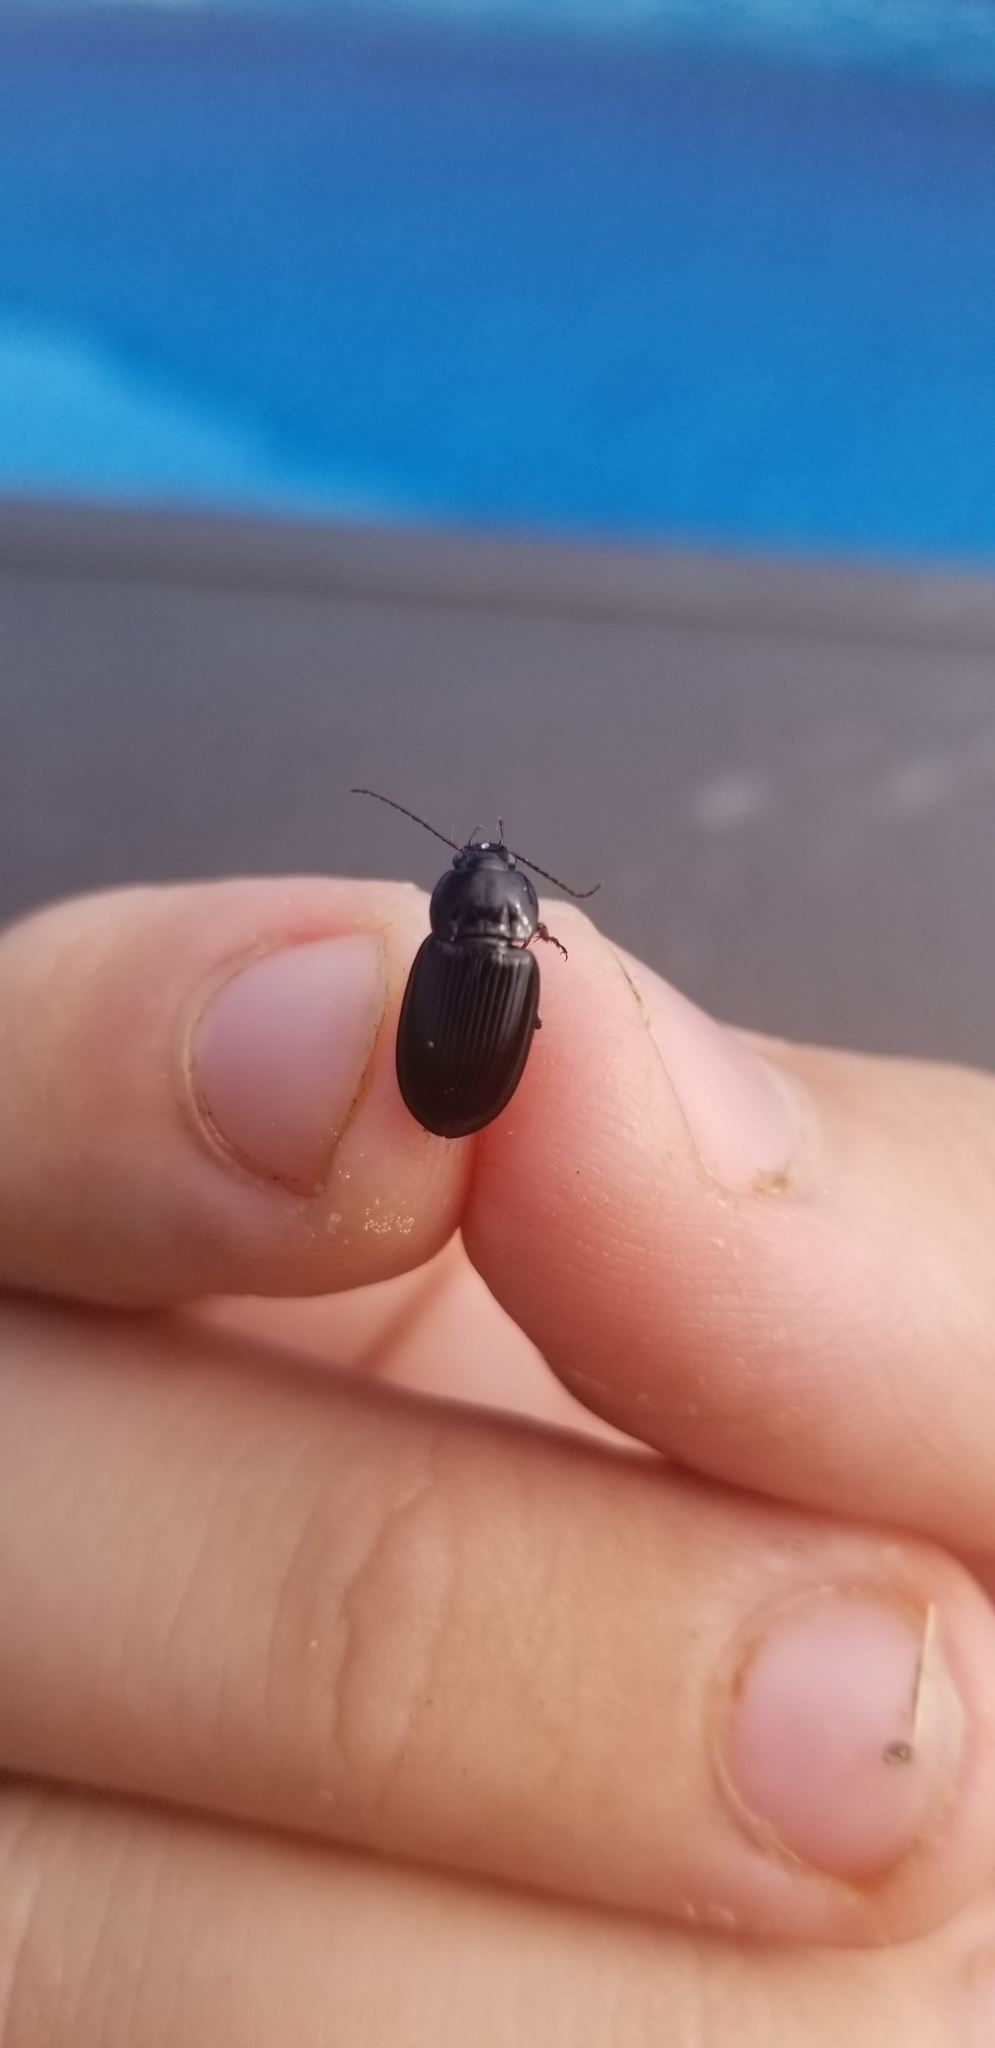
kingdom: Animalia
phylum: Arthropoda
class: Insecta
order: Coleoptera
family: Carabidae
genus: Diplocheila
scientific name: Diplocheila obtusa
